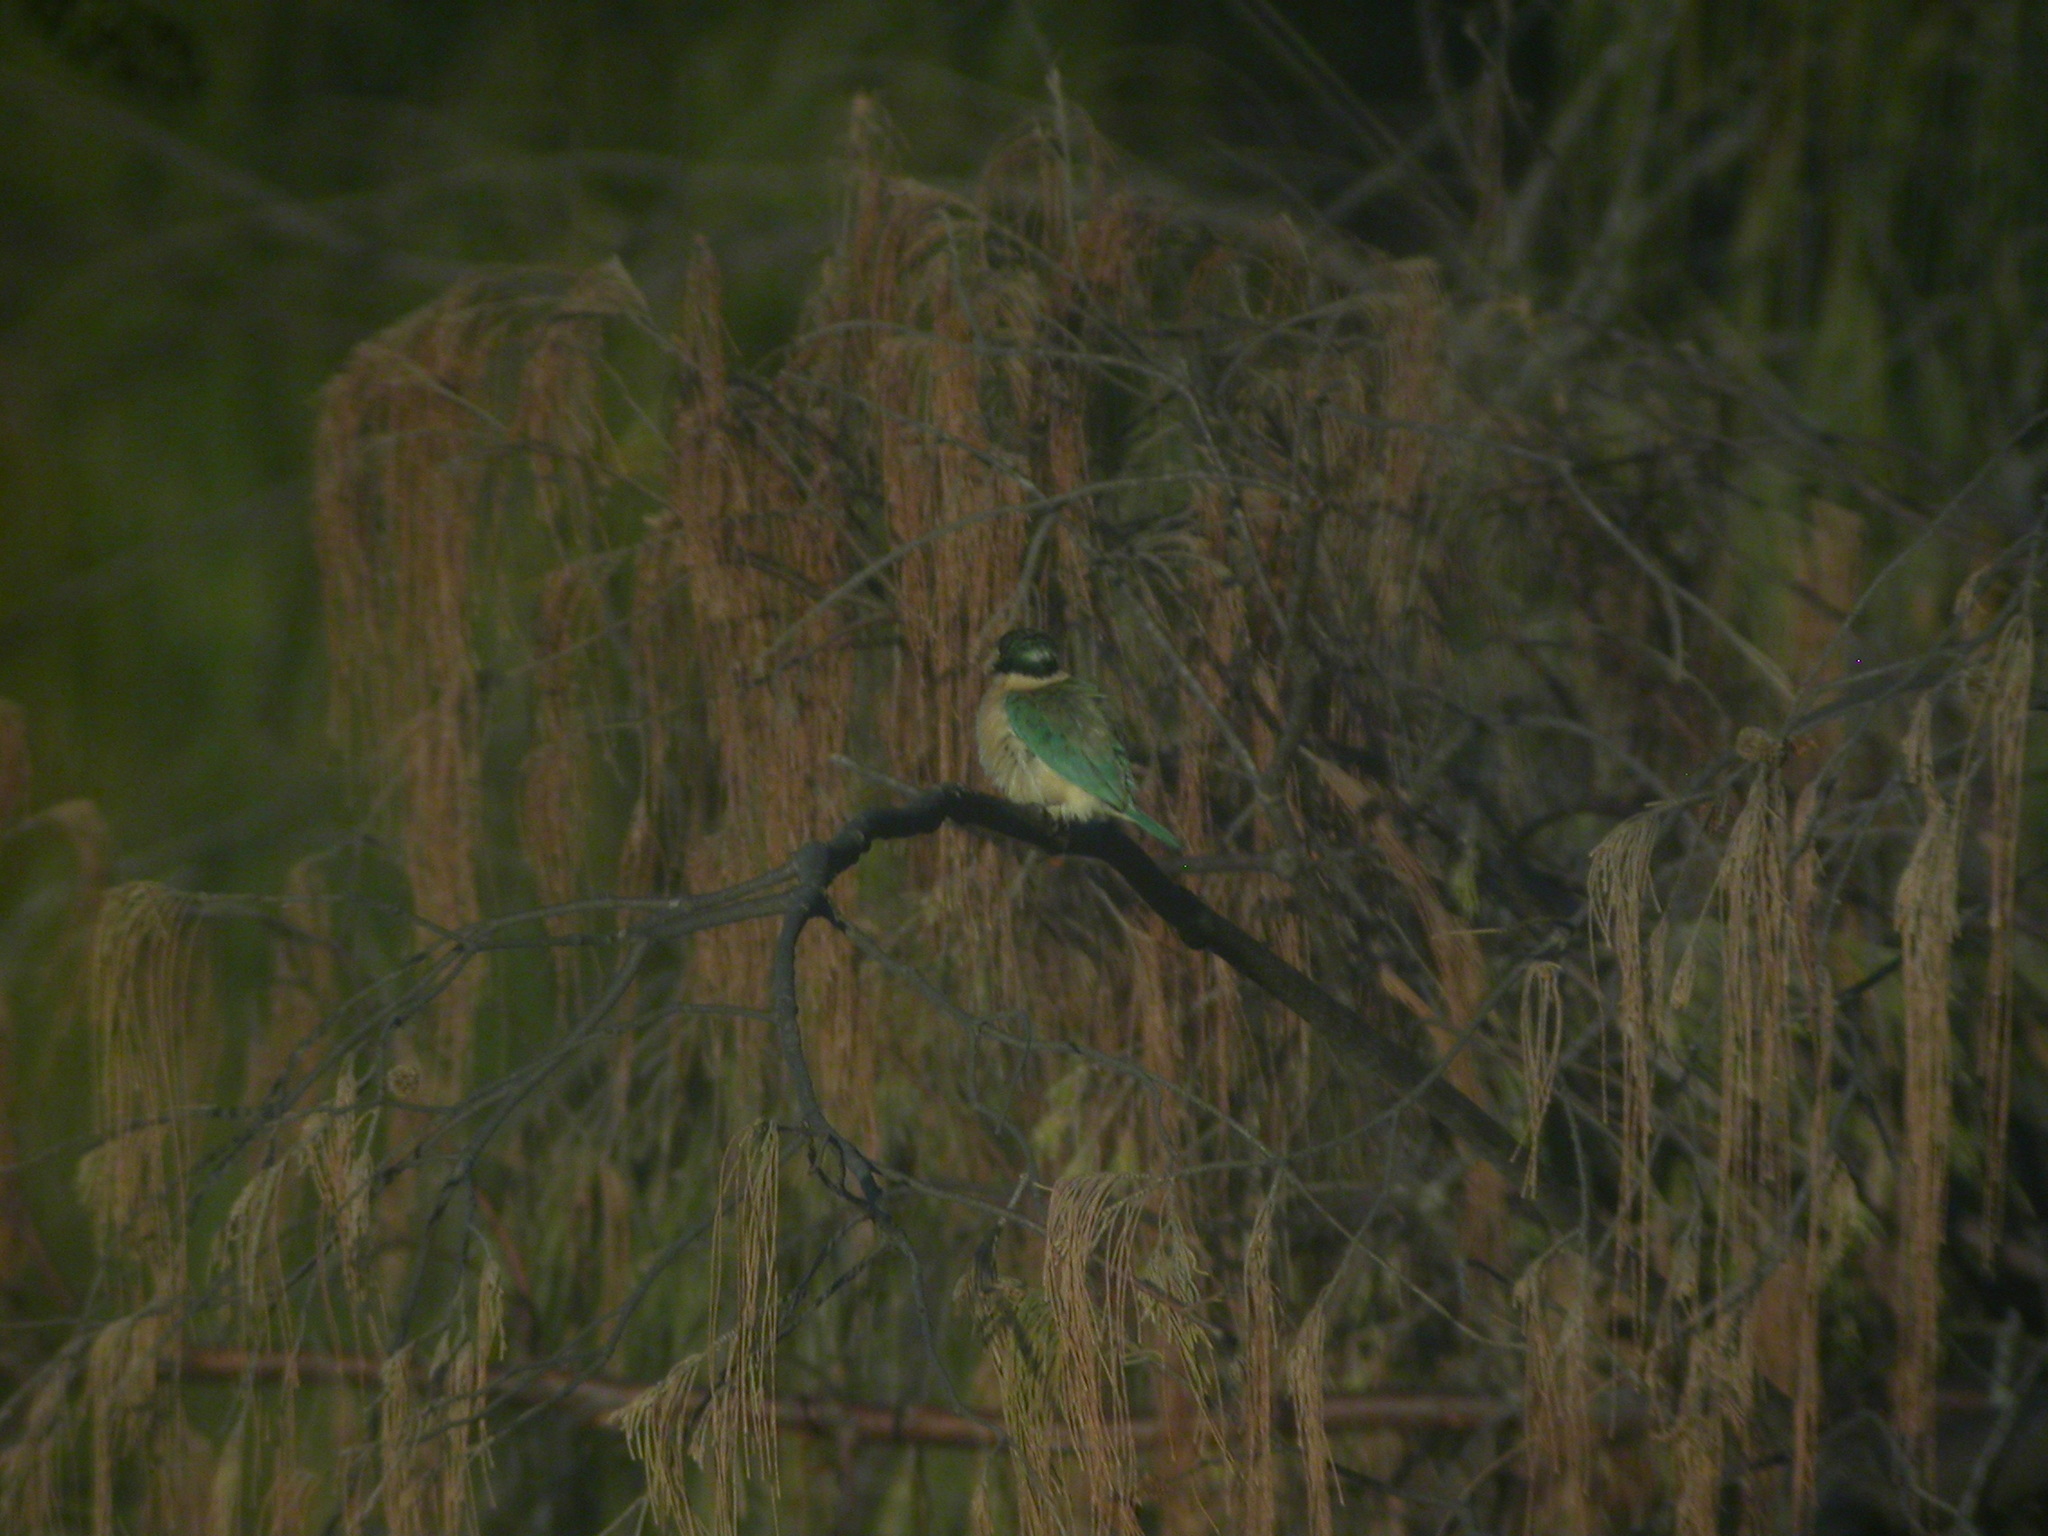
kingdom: Animalia
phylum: Chordata
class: Aves
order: Coraciiformes
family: Alcedinidae
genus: Todiramphus
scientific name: Todiramphus sanctus
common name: Sacred kingfisher
